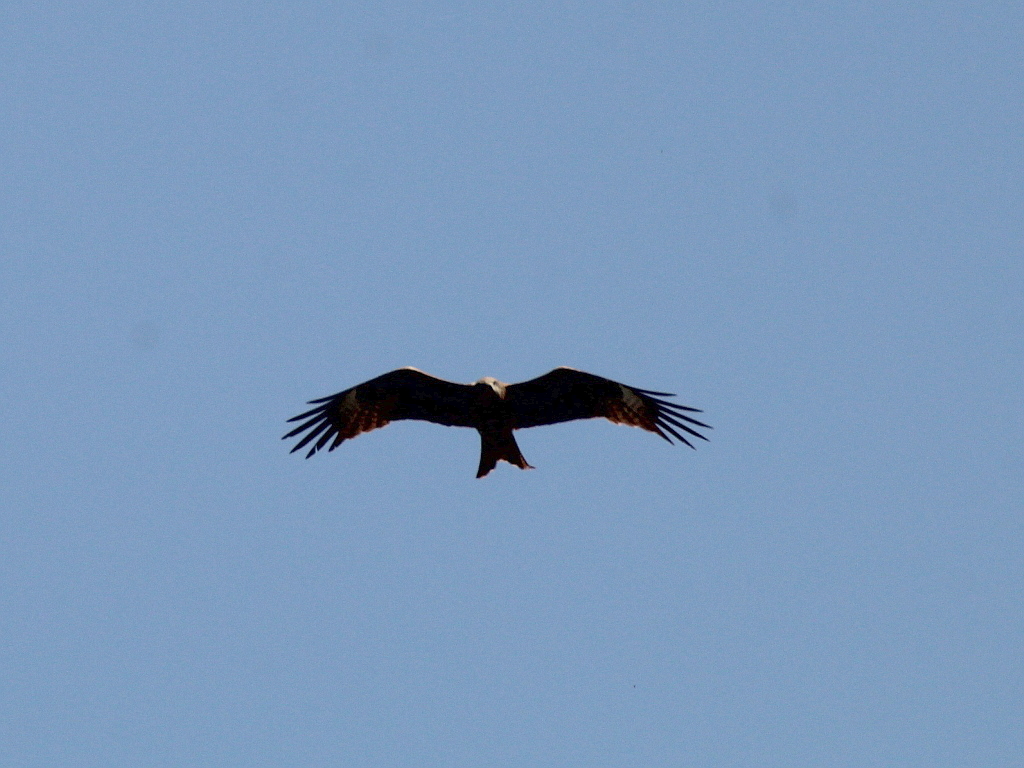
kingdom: Animalia
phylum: Chordata
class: Aves
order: Accipitriformes
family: Accipitridae
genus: Milvus
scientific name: Milvus migrans
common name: Black kite
